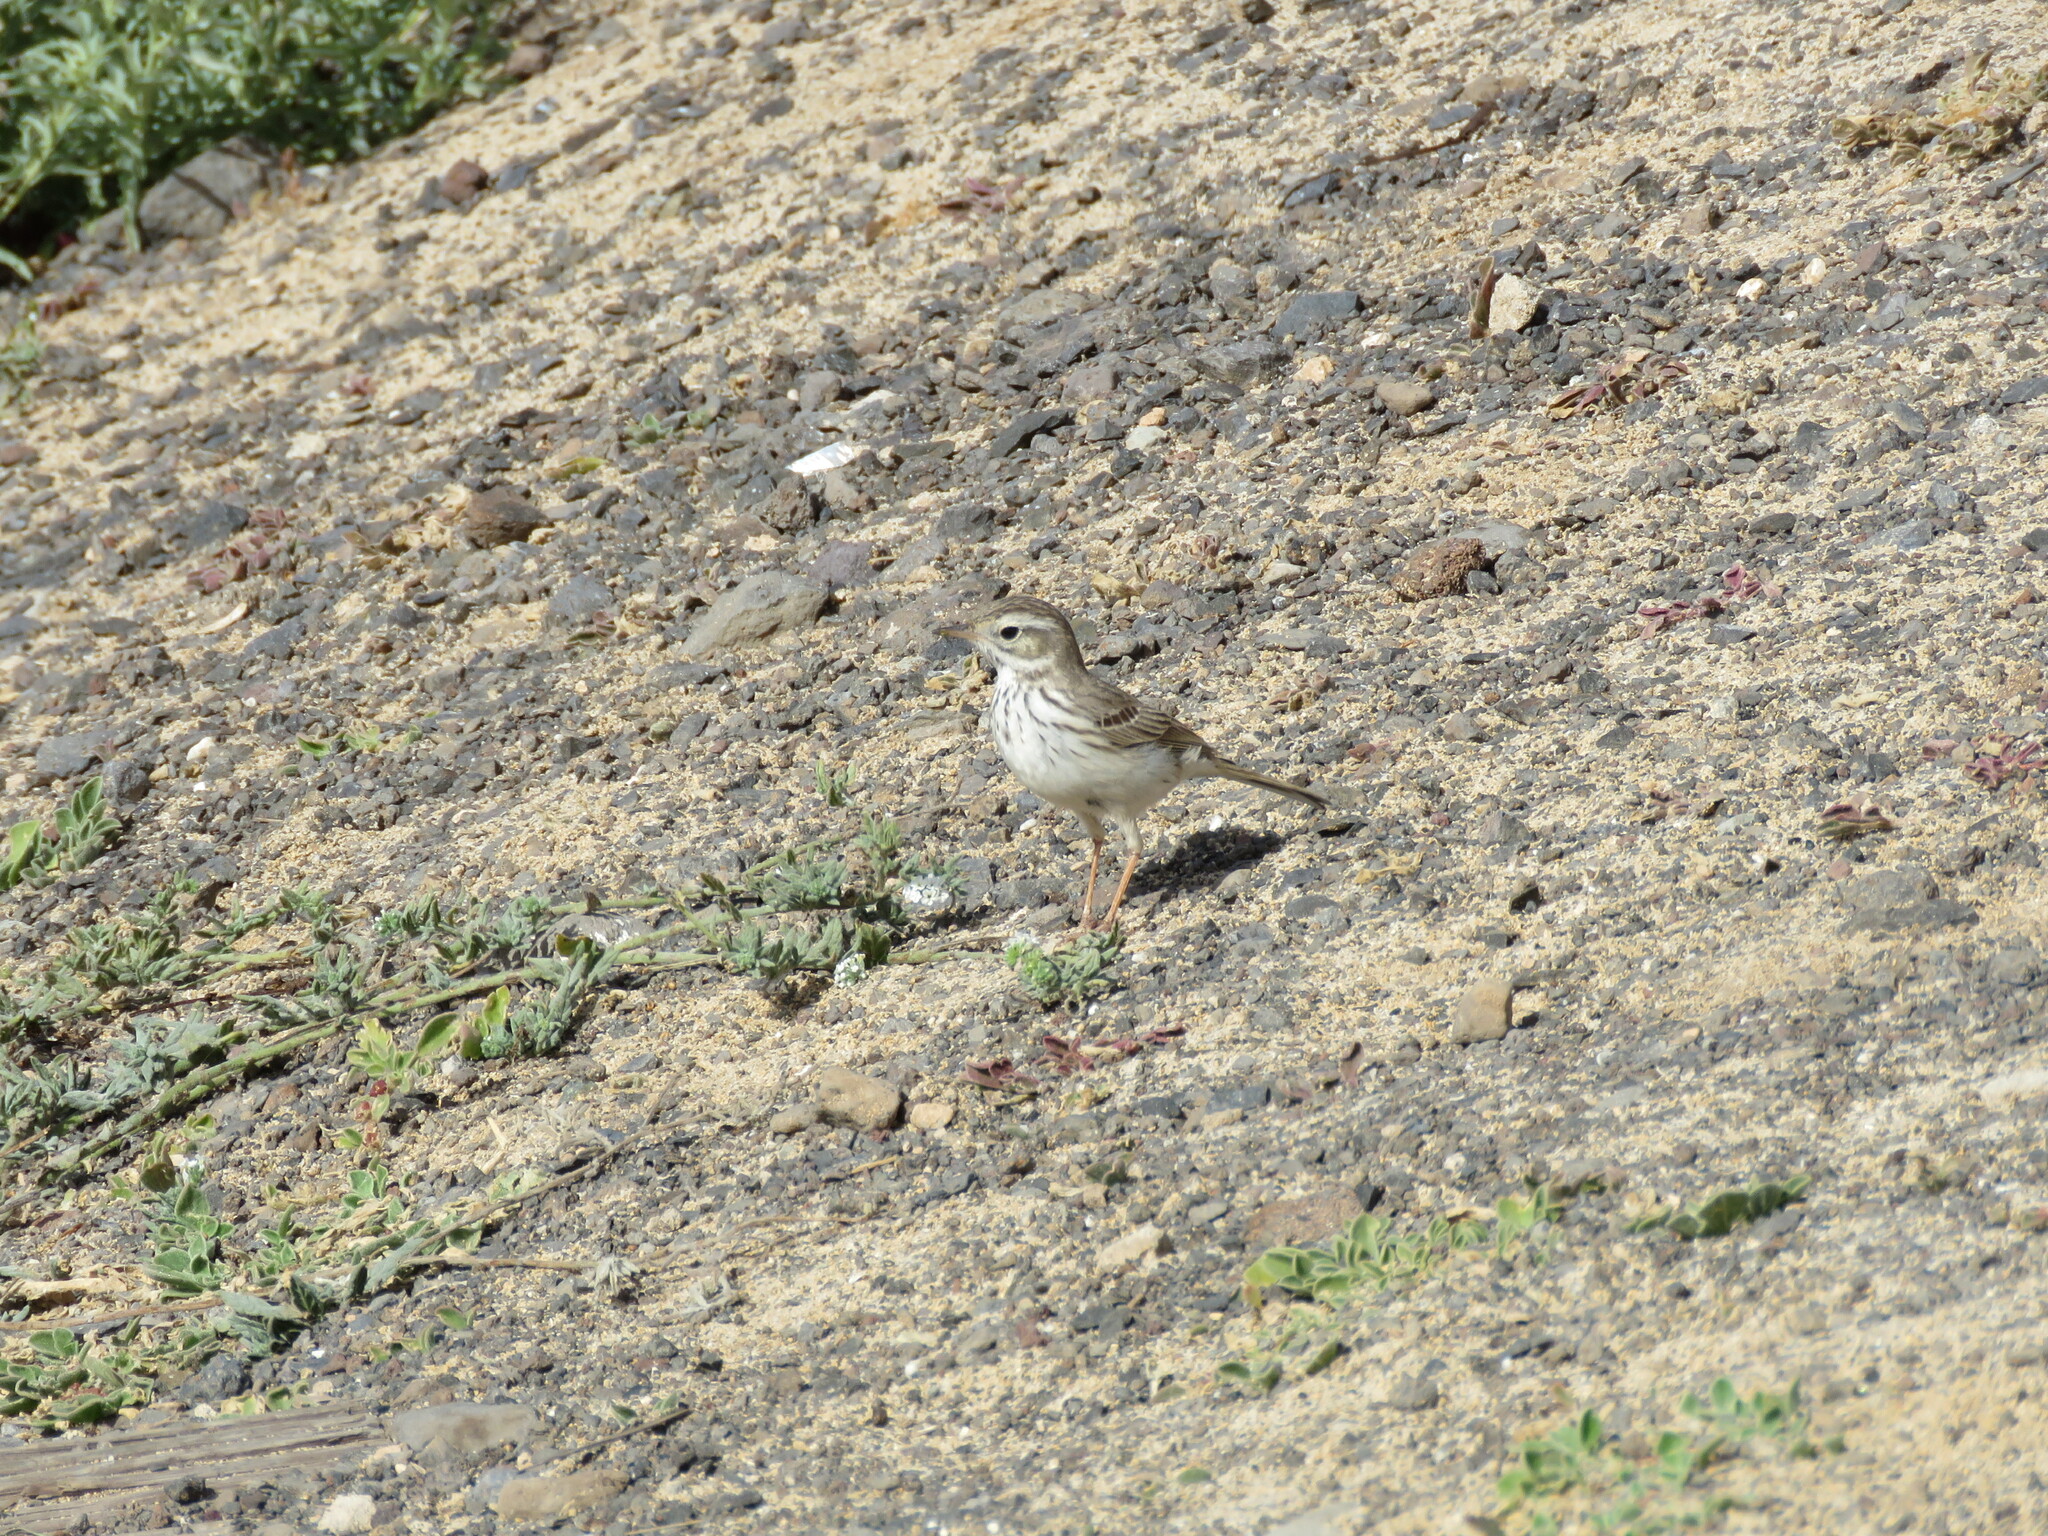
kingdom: Animalia
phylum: Chordata
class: Aves
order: Passeriformes
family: Motacillidae
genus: Anthus
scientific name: Anthus berthelotii
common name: Berthelot's pipit
